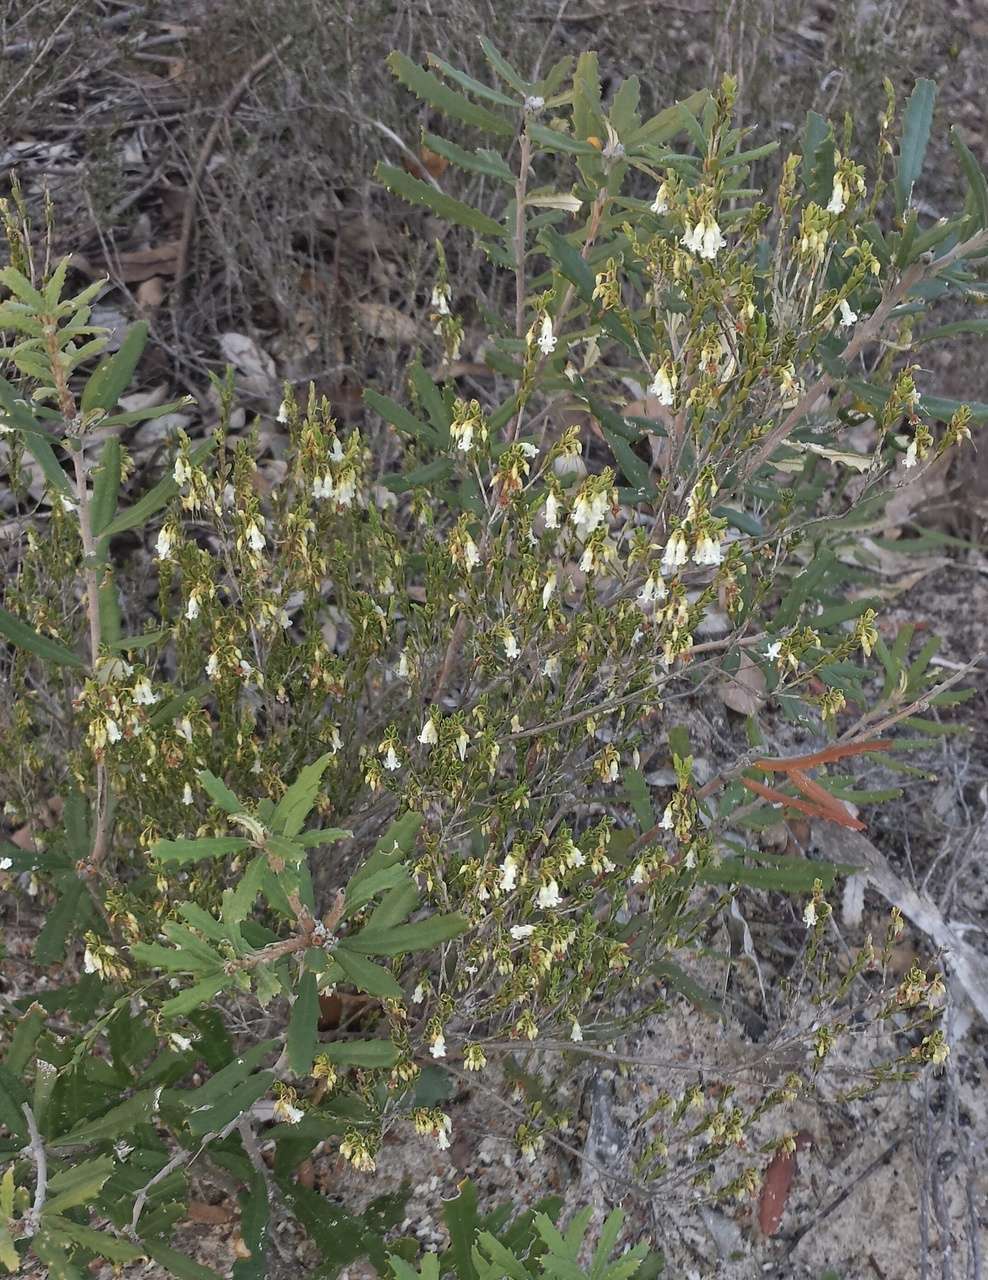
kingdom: Plantae
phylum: Tracheophyta
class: Magnoliopsida
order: Ericales
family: Ericaceae
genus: Styphelia
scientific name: Styphelia woodsii
